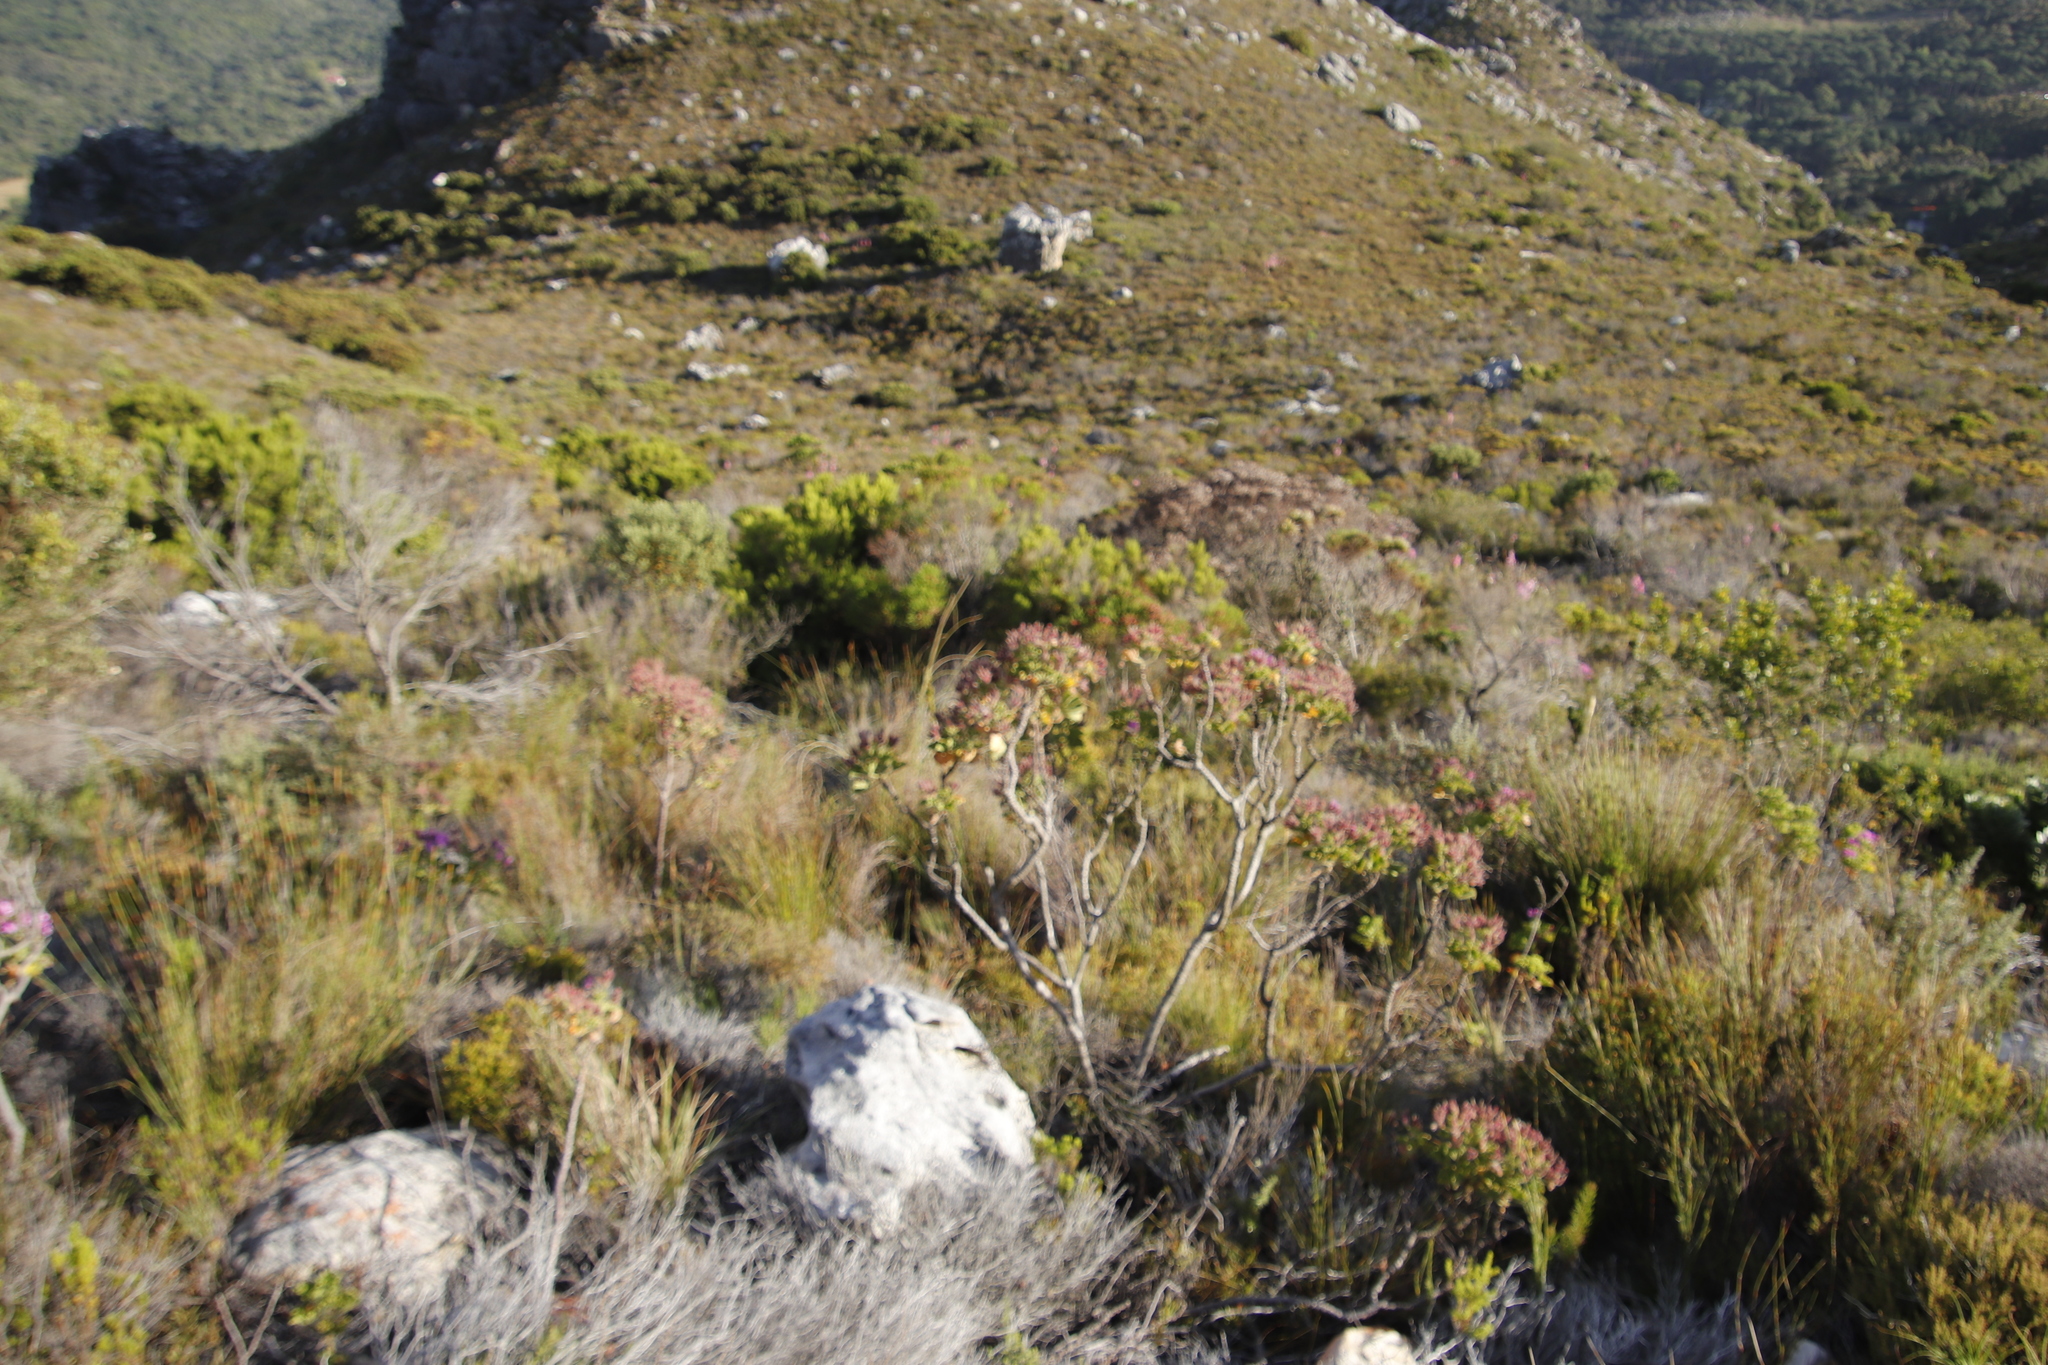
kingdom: Plantae
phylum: Tracheophyta
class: Magnoliopsida
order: Geraniales
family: Geraniaceae
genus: Pelargonium
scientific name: Pelargonium cucullatum
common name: Tree pelargonium
